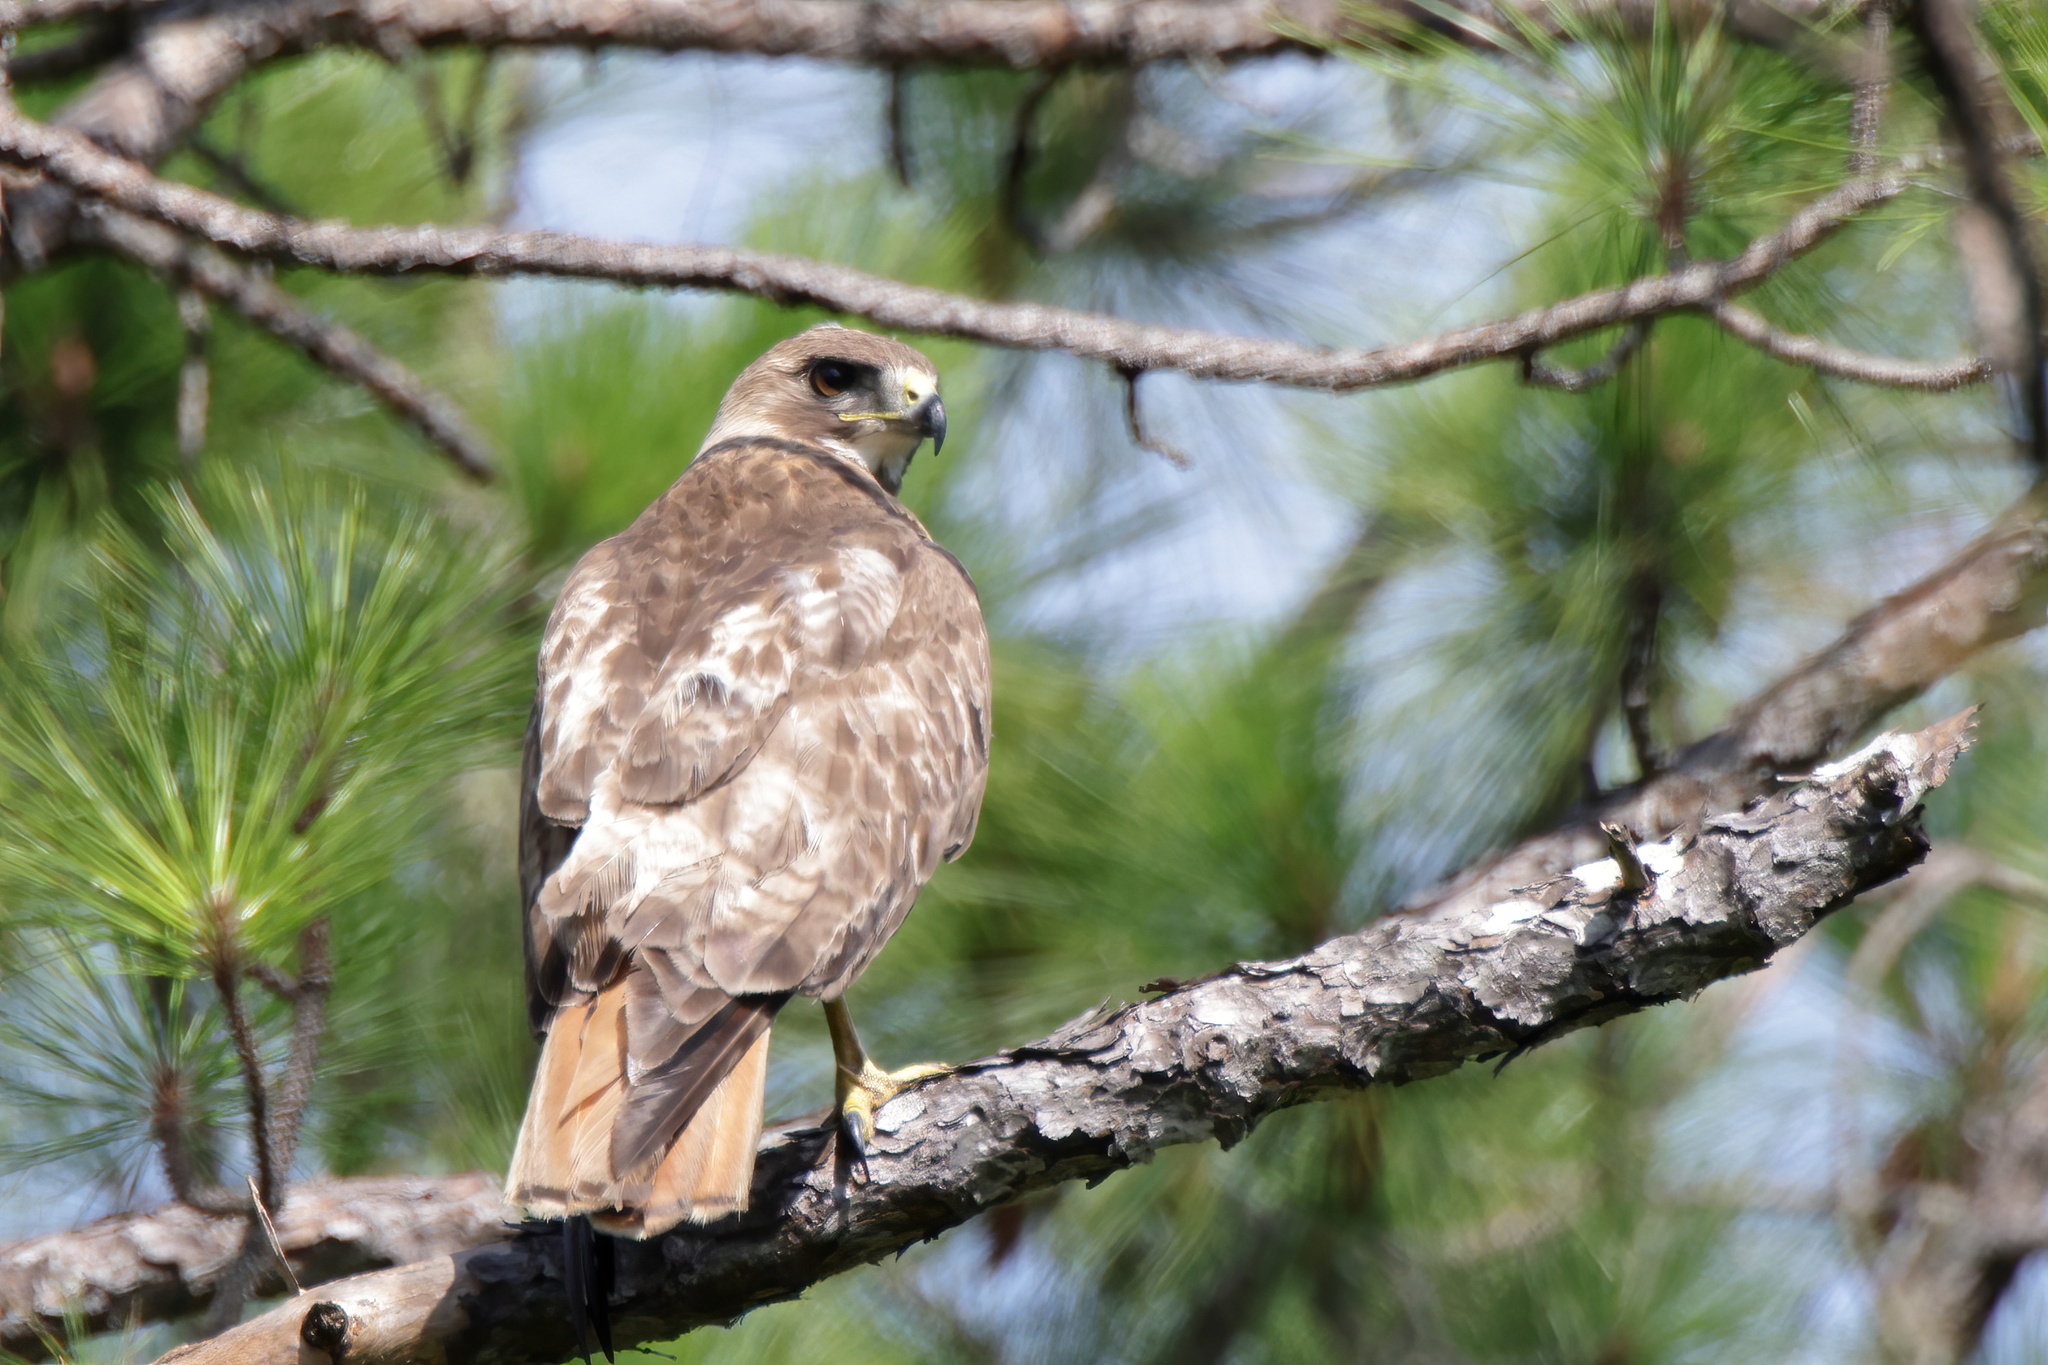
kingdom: Animalia
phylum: Chordata
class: Aves
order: Accipitriformes
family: Accipitridae
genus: Buteo
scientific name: Buteo jamaicensis
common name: Red-tailed hawk
